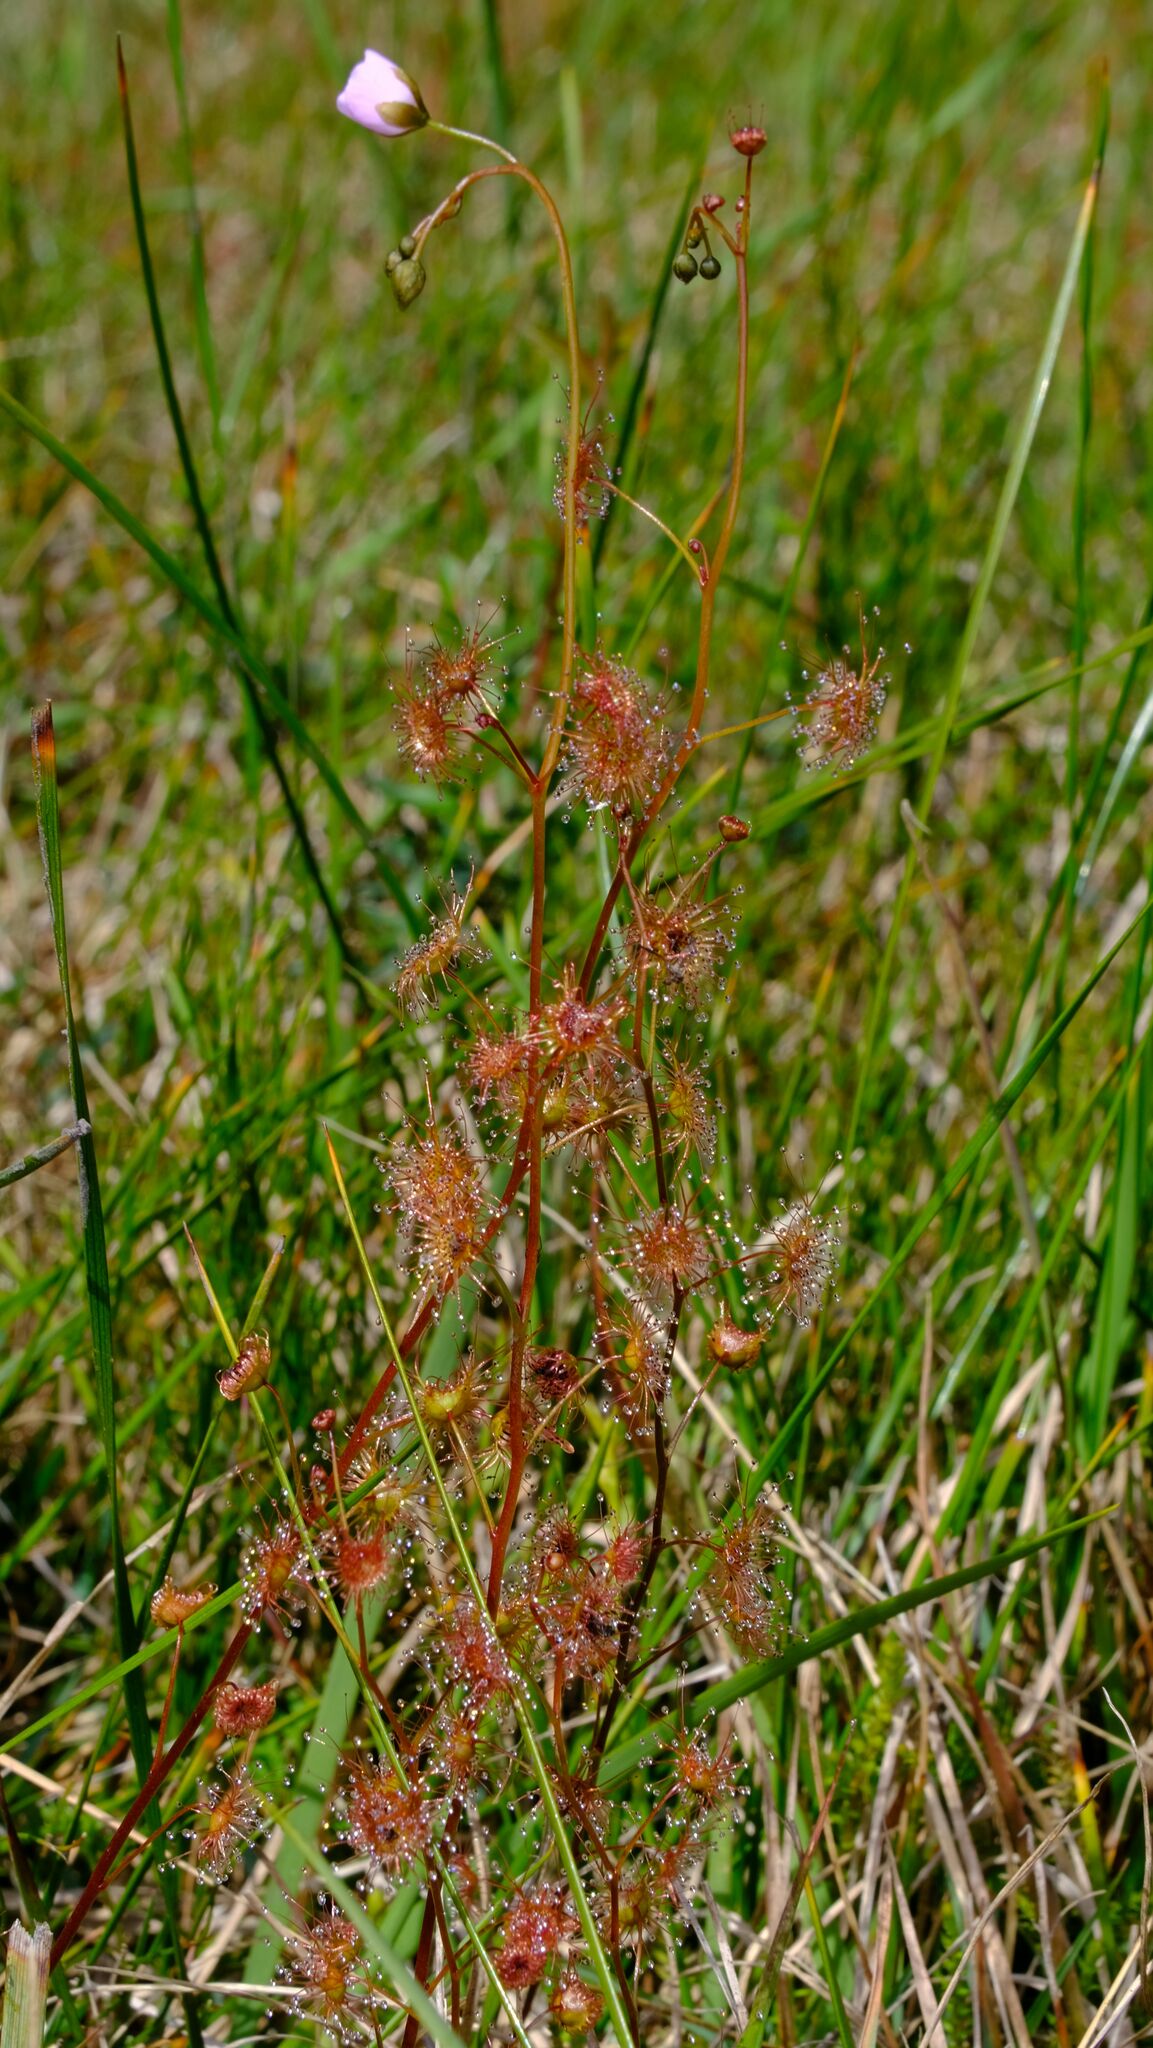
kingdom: Plantae
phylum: Tracheophyta
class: Magnoliopsida
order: Caryophyllales
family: Droseraceae
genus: Drosera
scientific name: Drosera peltata
